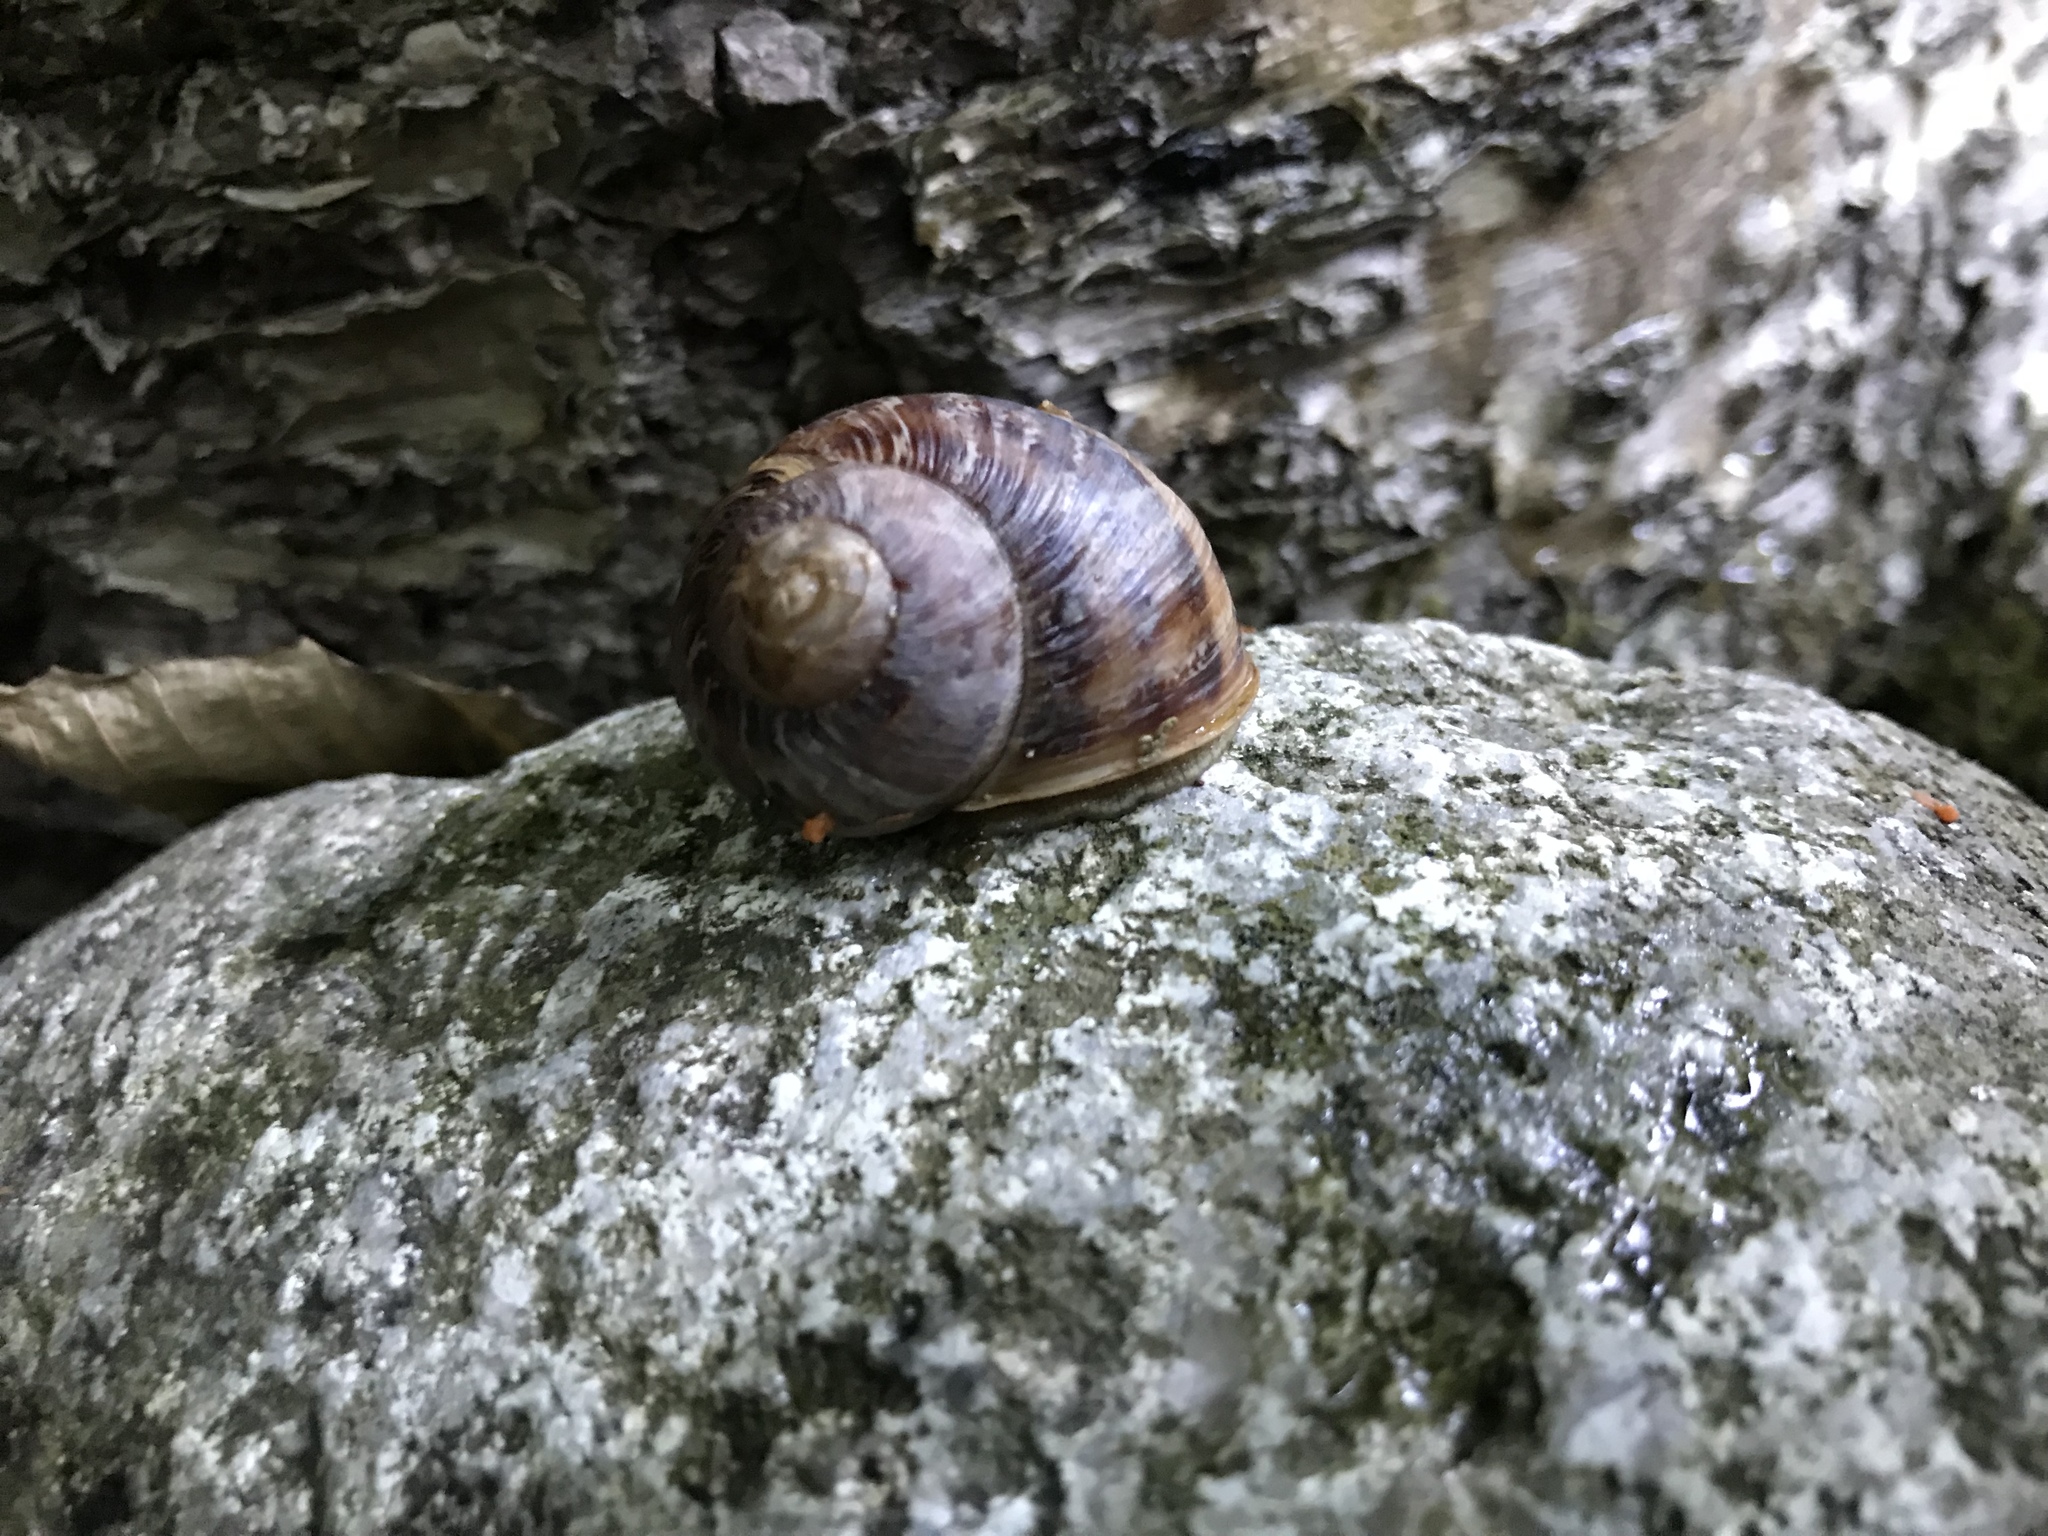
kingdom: Animalia
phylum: Mollusca
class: Gastropoda
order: Stylommatophora
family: Helicidae
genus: Cornu
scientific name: Cornu aspersum
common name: Brown garden snail
